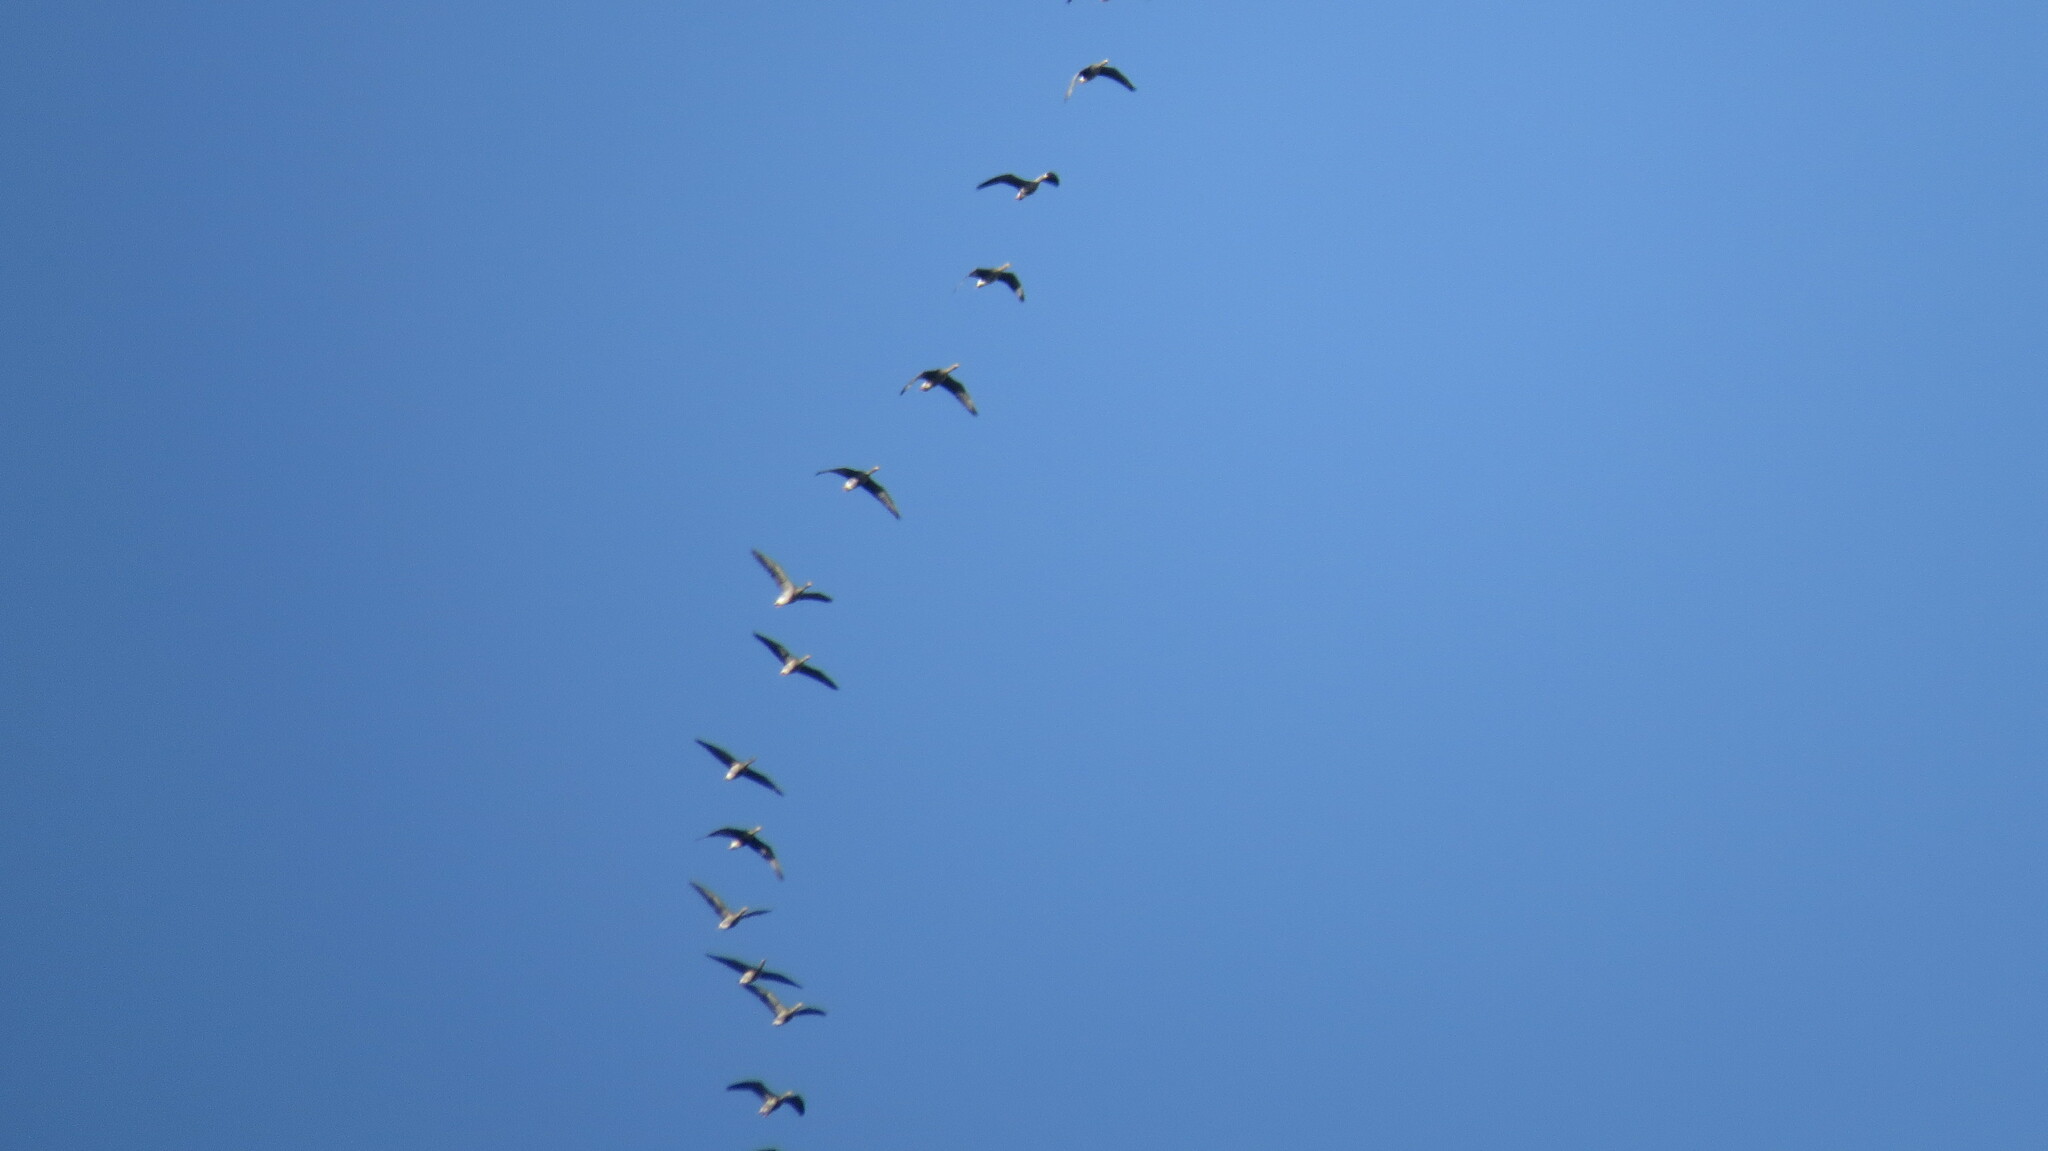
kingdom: Animalia
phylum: Chordata
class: Aves
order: Anseriformes
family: Anatidae
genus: Anser
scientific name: Anser albifrons
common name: Greater white-fronted goose
